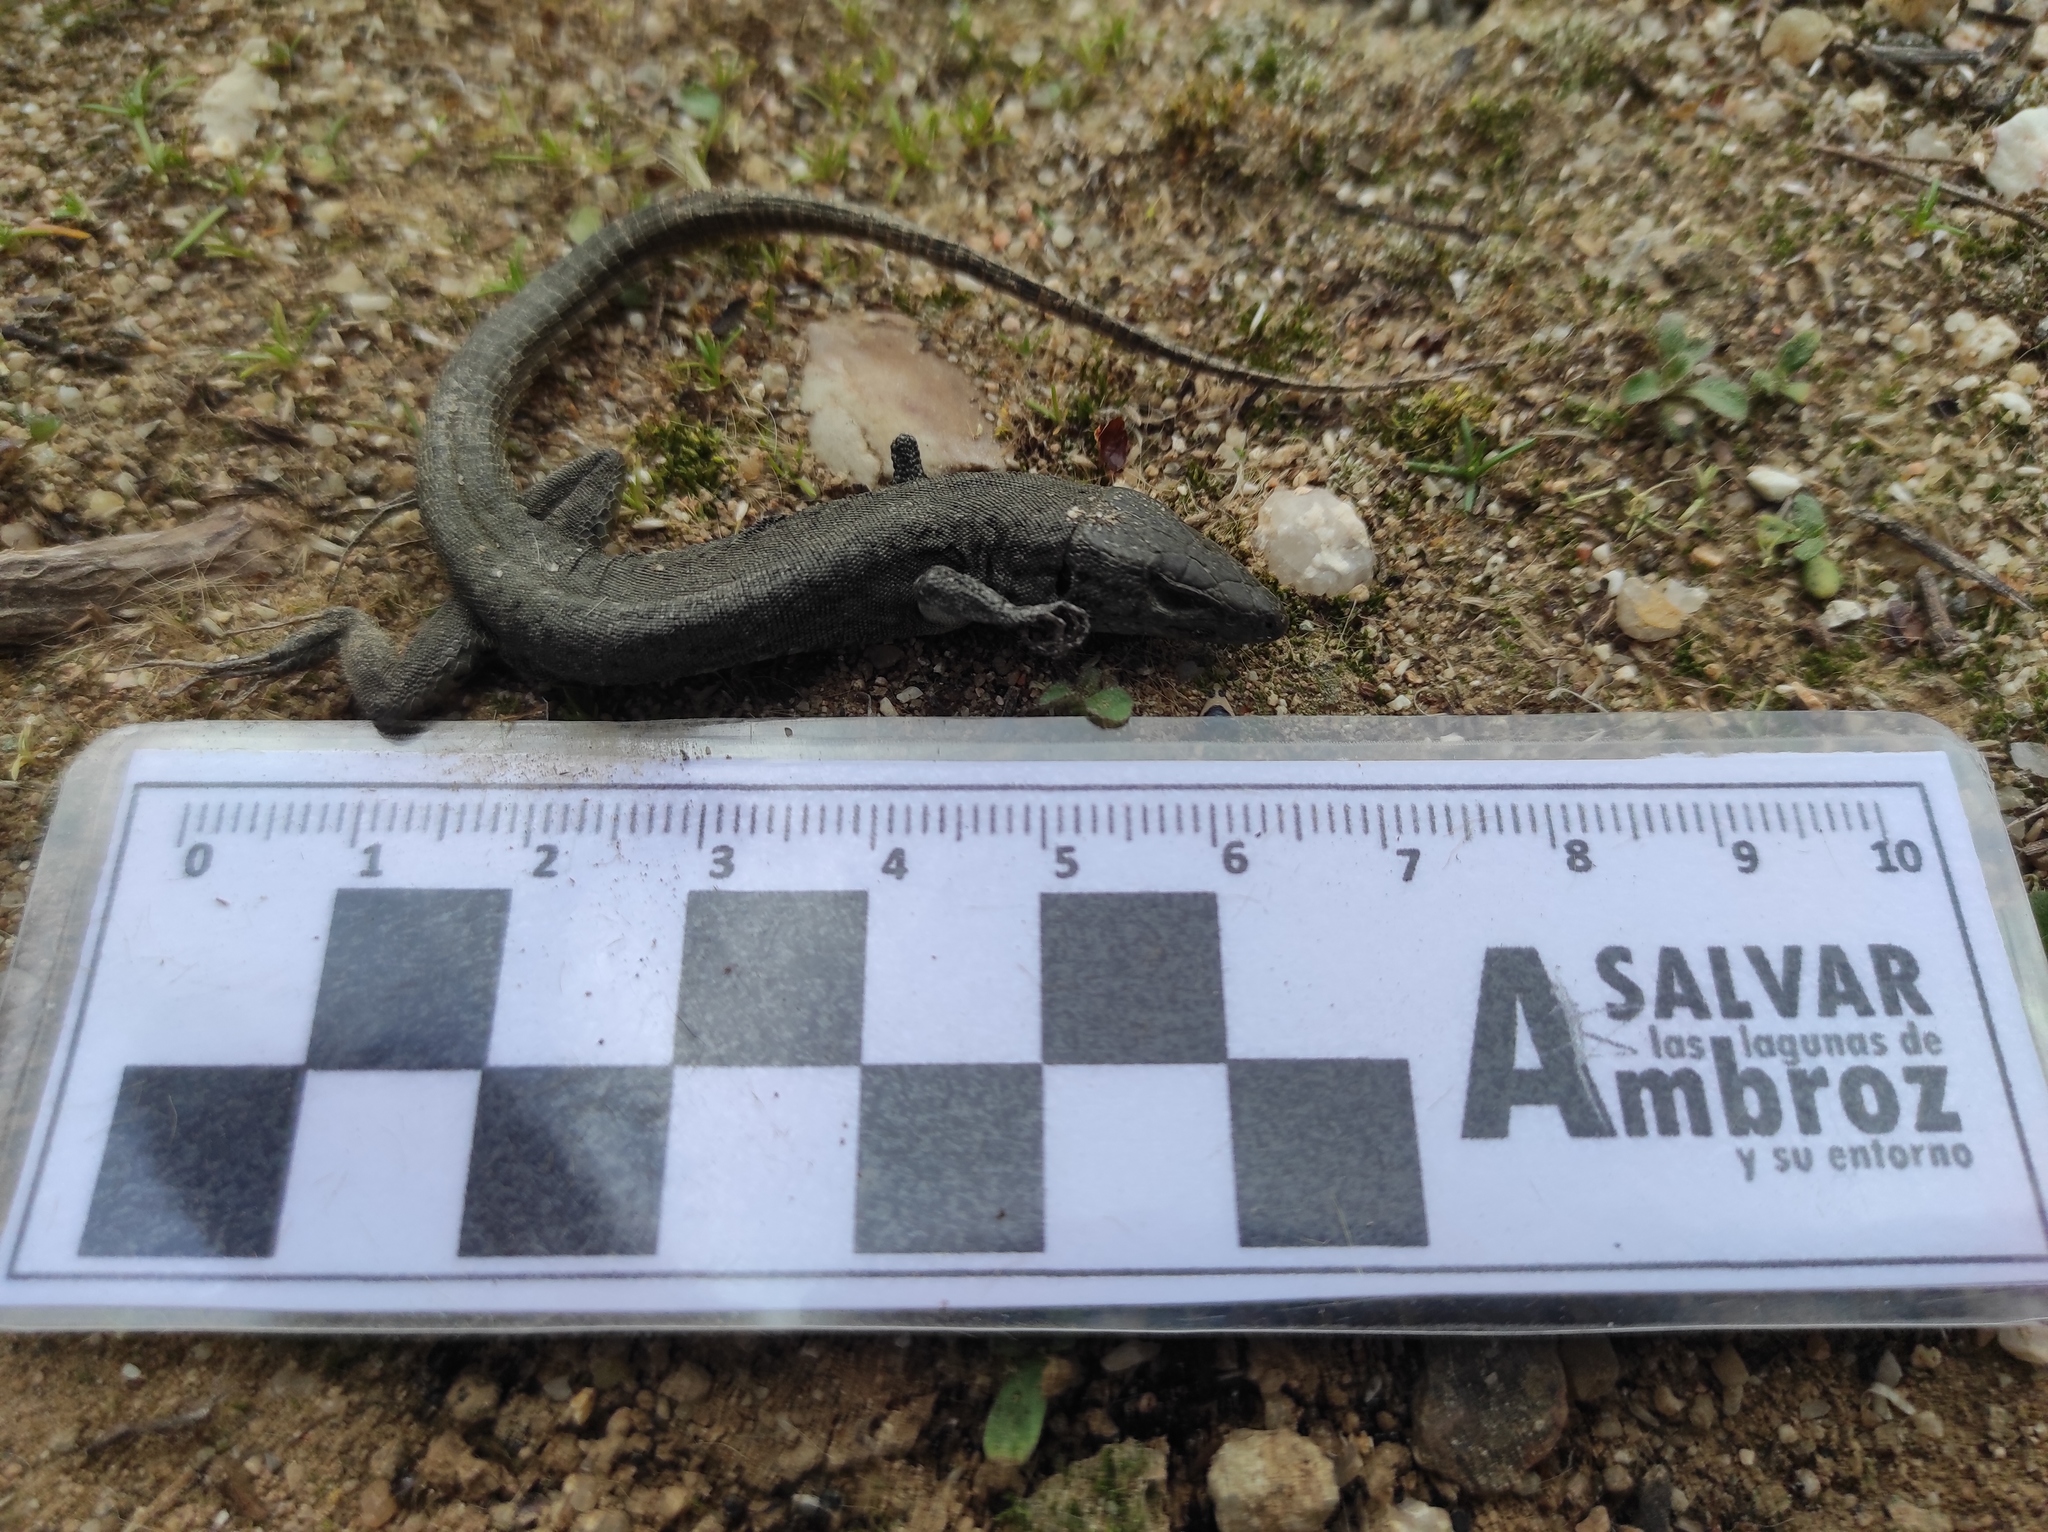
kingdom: Animalia
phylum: Chordata
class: Squamata
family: Lacertidae
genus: Podarcis
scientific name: Podarcis virescens
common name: Geniez’s wall lizard
